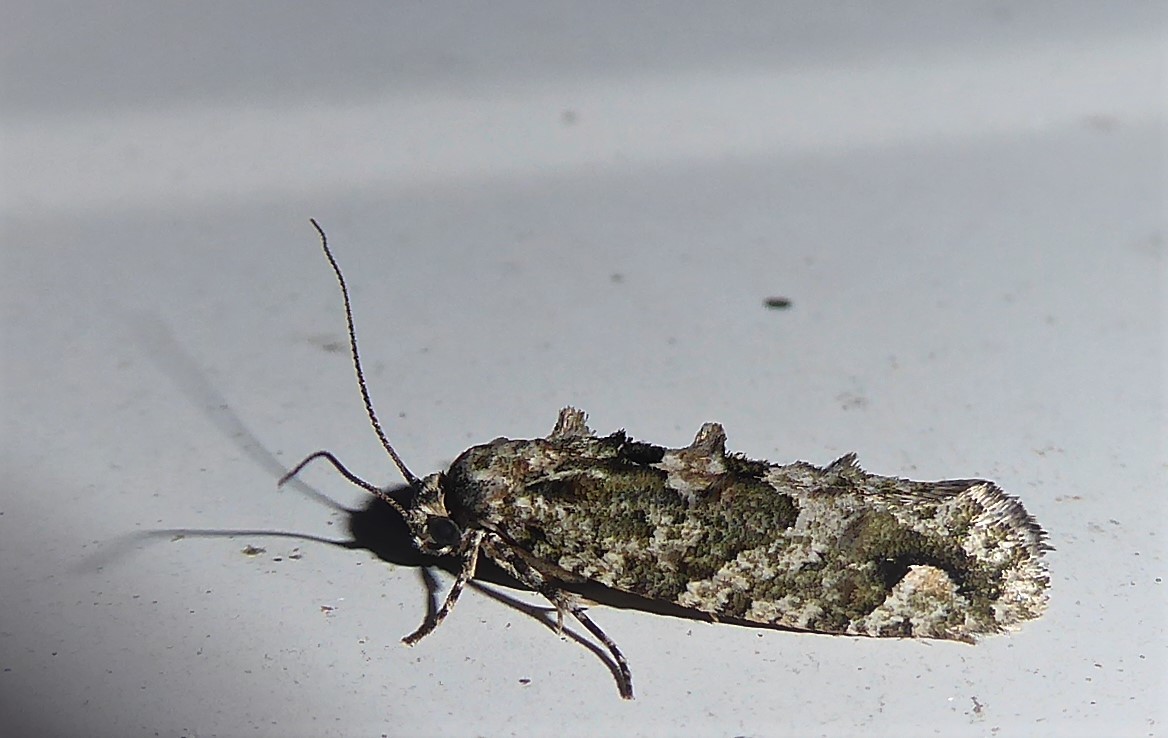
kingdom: Animalia
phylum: Arthropoda
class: Insecta
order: Lepidoptera
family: Tineidae
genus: Lysiphragma
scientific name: Lysiphragma howesii
